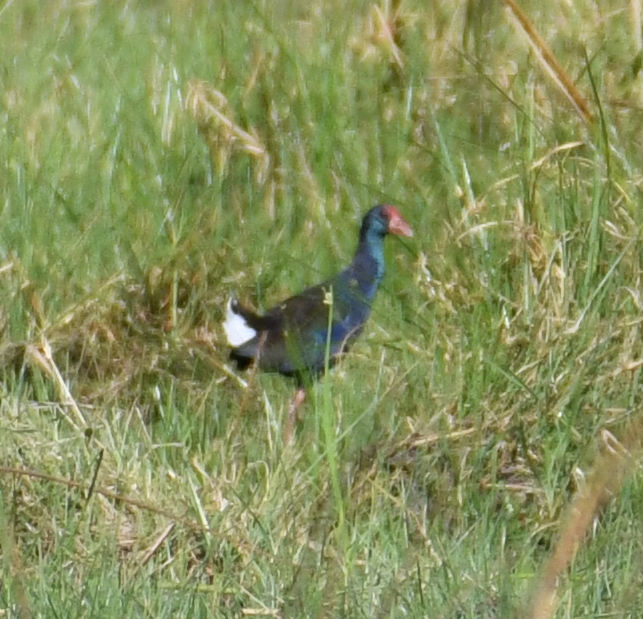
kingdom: Animalia
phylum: Chordata
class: Aves
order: Gruiformes
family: Rallidae
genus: Porphyrio
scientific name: Porphyrio porphyrio
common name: Purple swamphen
